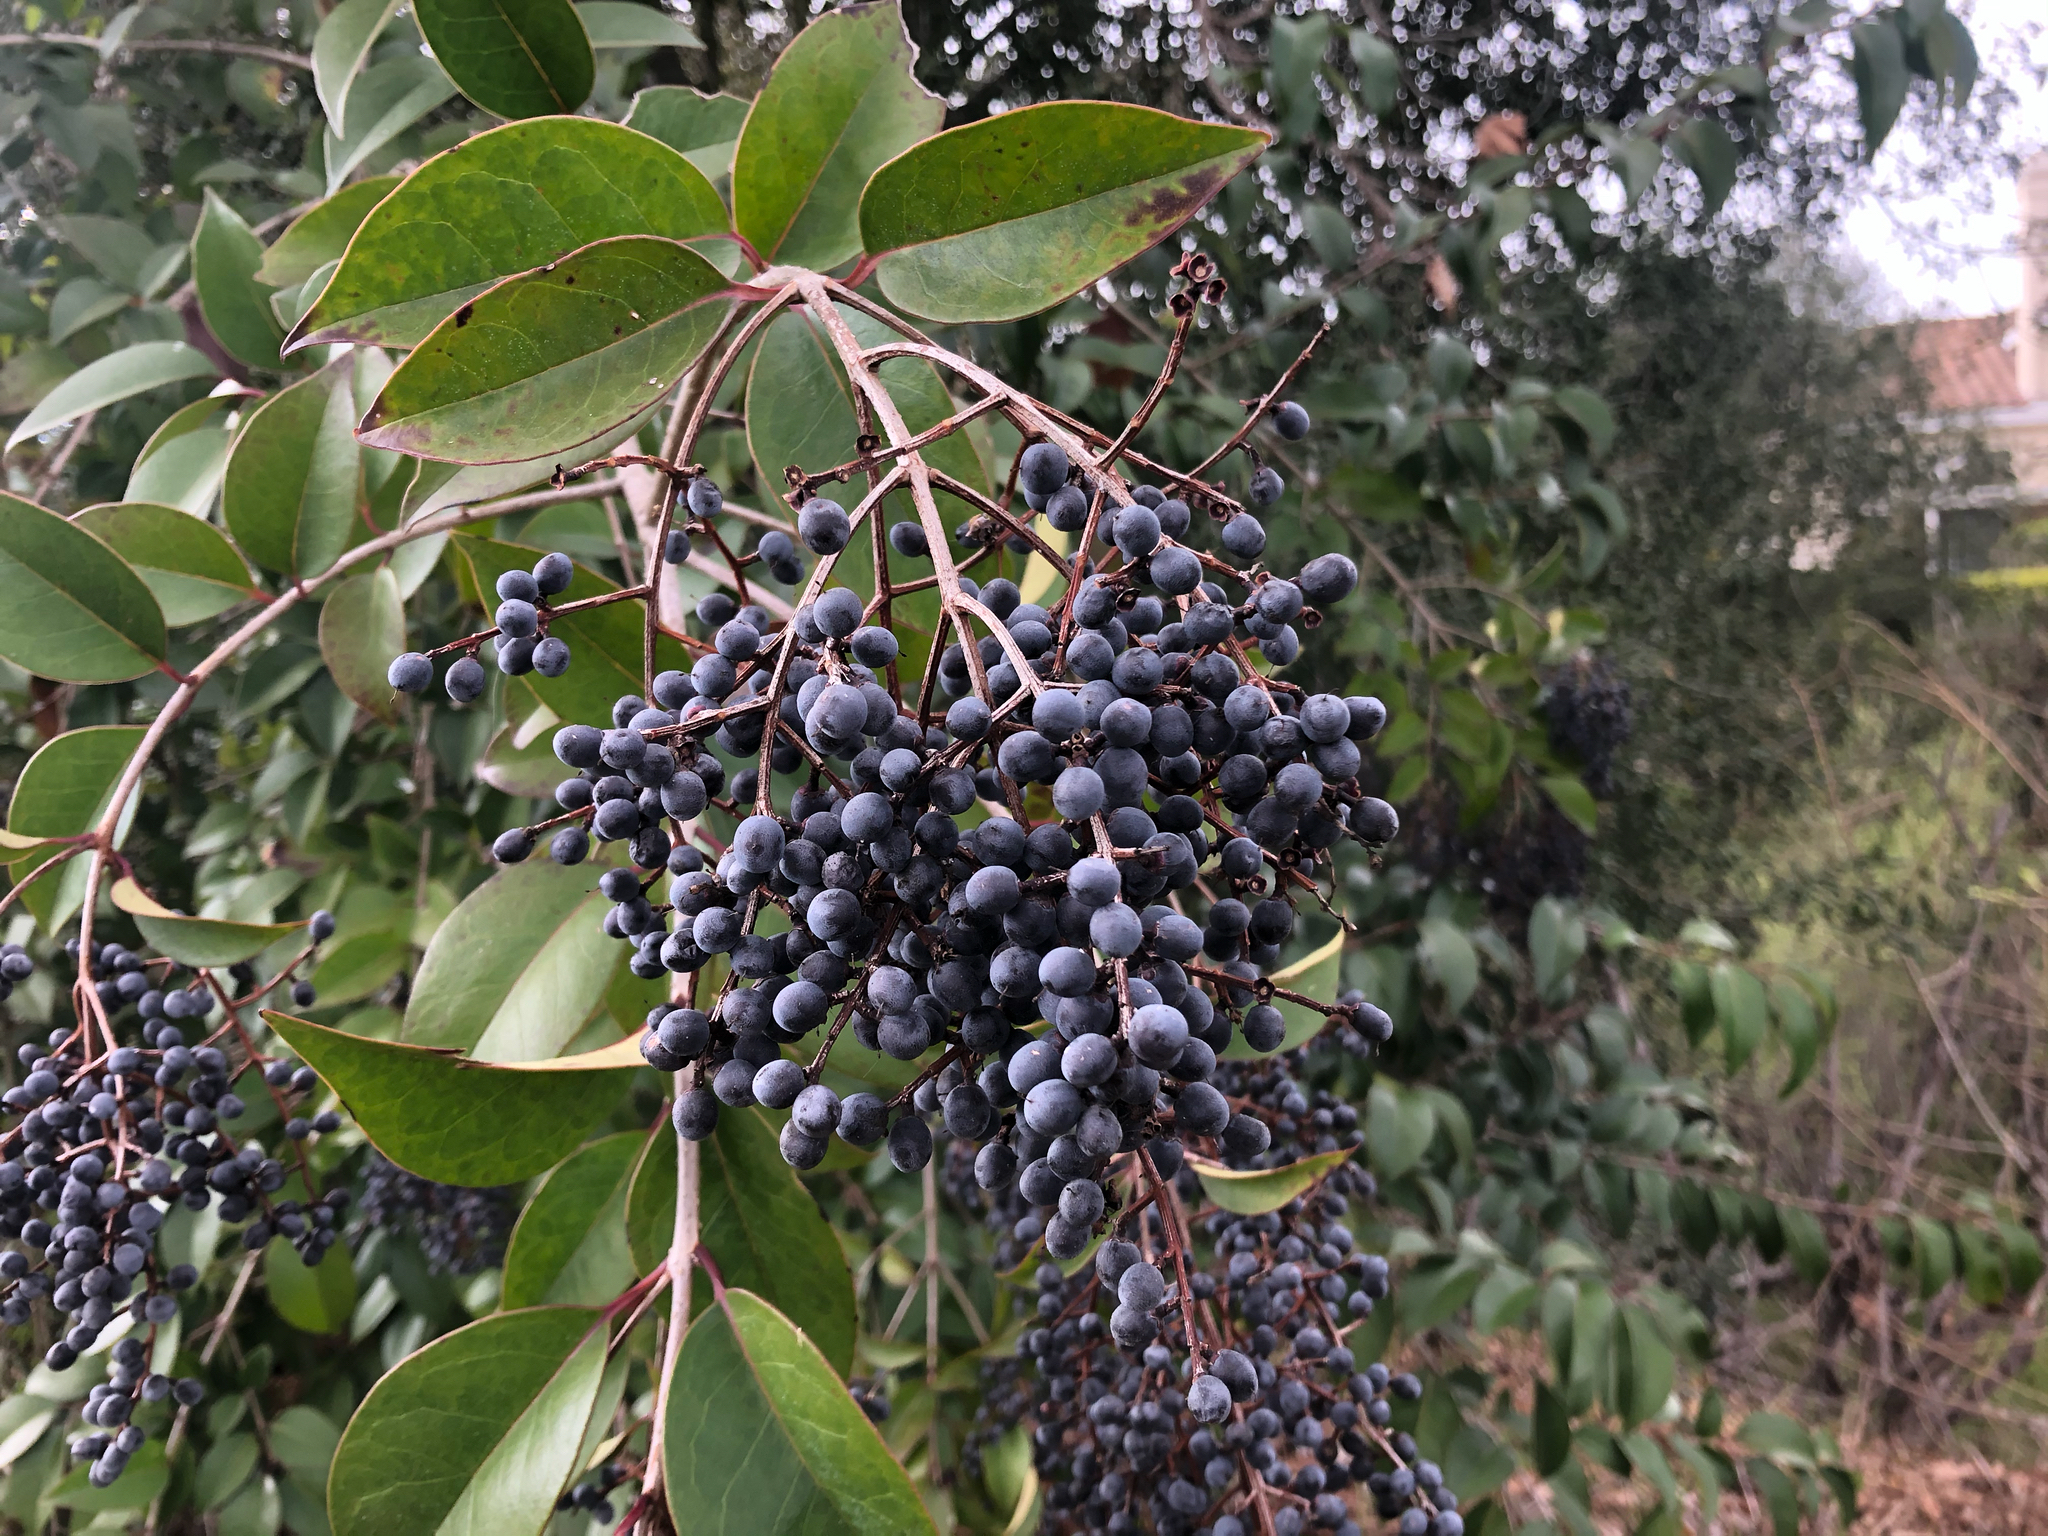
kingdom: Plantae
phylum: Tracheophyta
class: Magnoliopsida
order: Lamiales
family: Oleaceae
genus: Ligustrum
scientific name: Ligustrum lucidum
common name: Glossy privet
